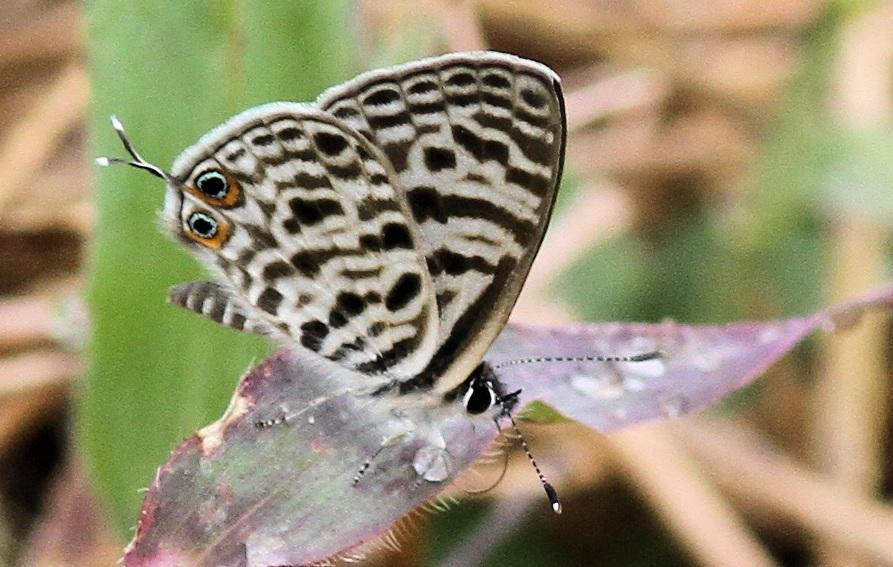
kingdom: Animalia
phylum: Arthropoda
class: Insecta
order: Lepidoptera
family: Lycaenidae
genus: Leptotes
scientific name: Leptotes
